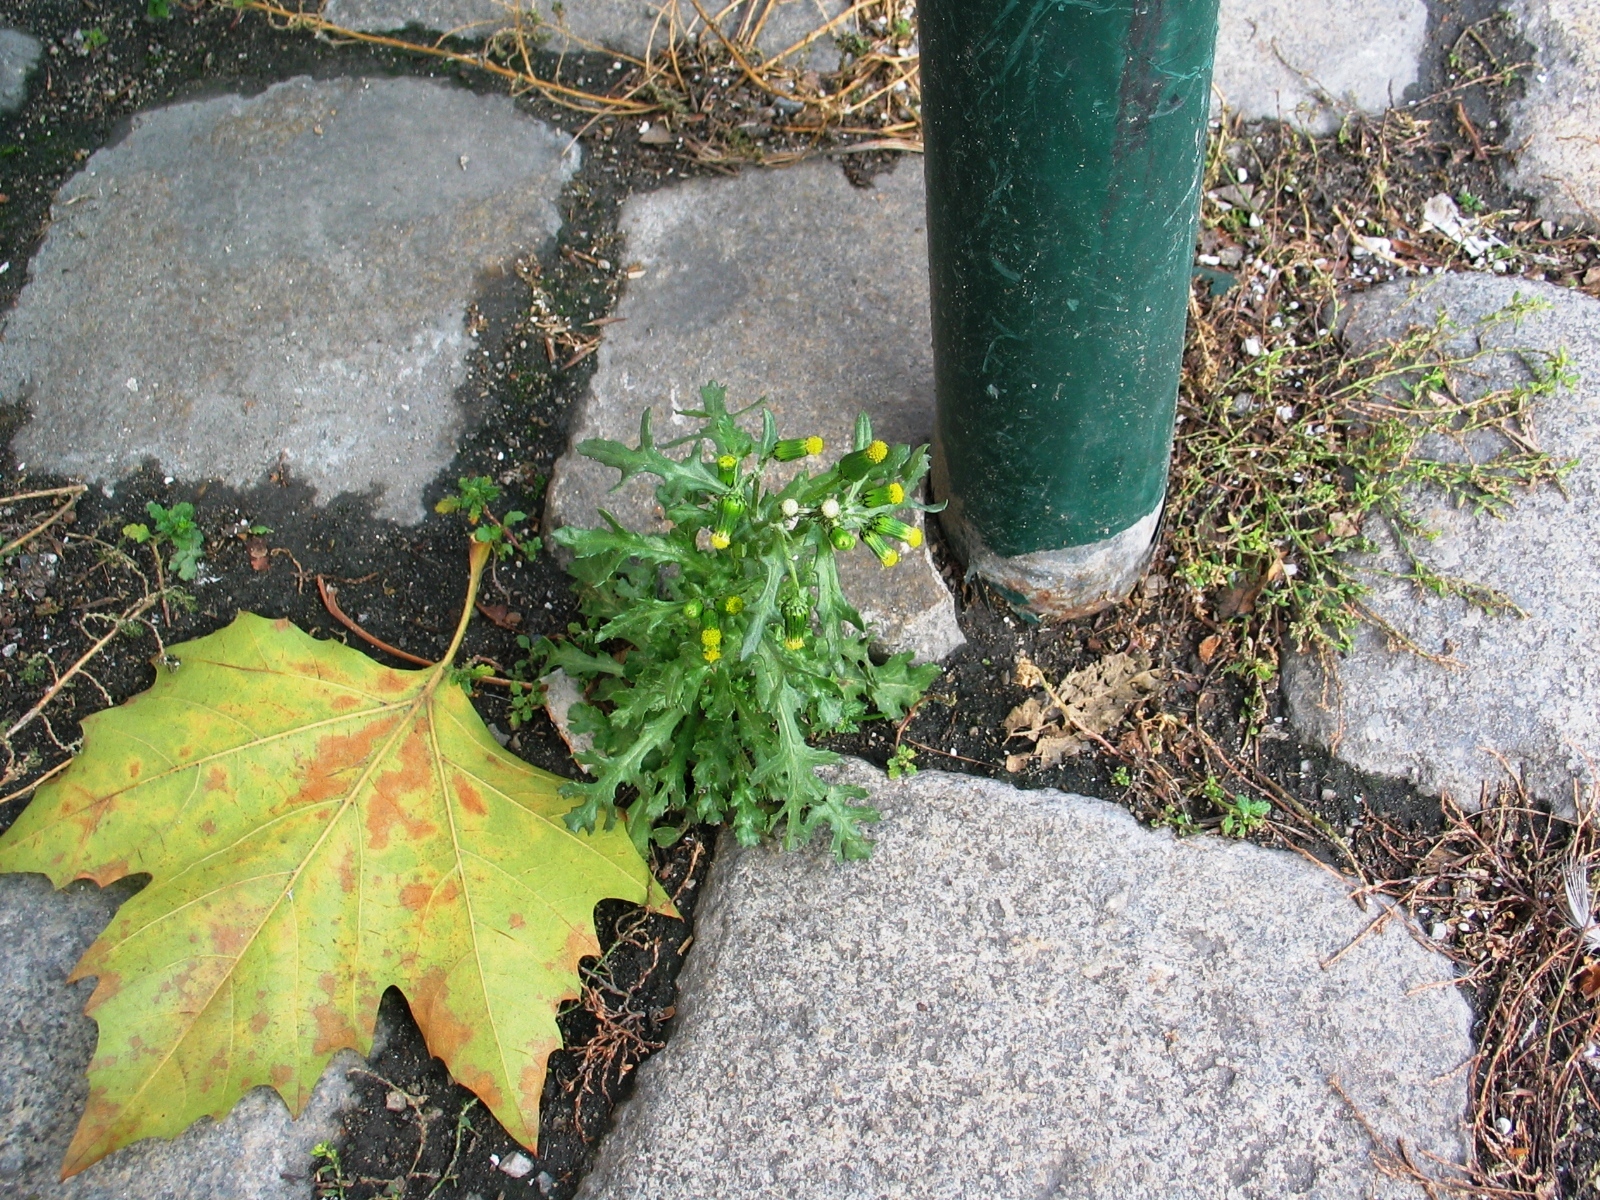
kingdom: Plantae
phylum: Tracheophyta
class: Magnoliopsida
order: Asterales
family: Asteraceae
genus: Senecio
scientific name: Senecio vulgaris
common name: Old-man-in-the-spring
